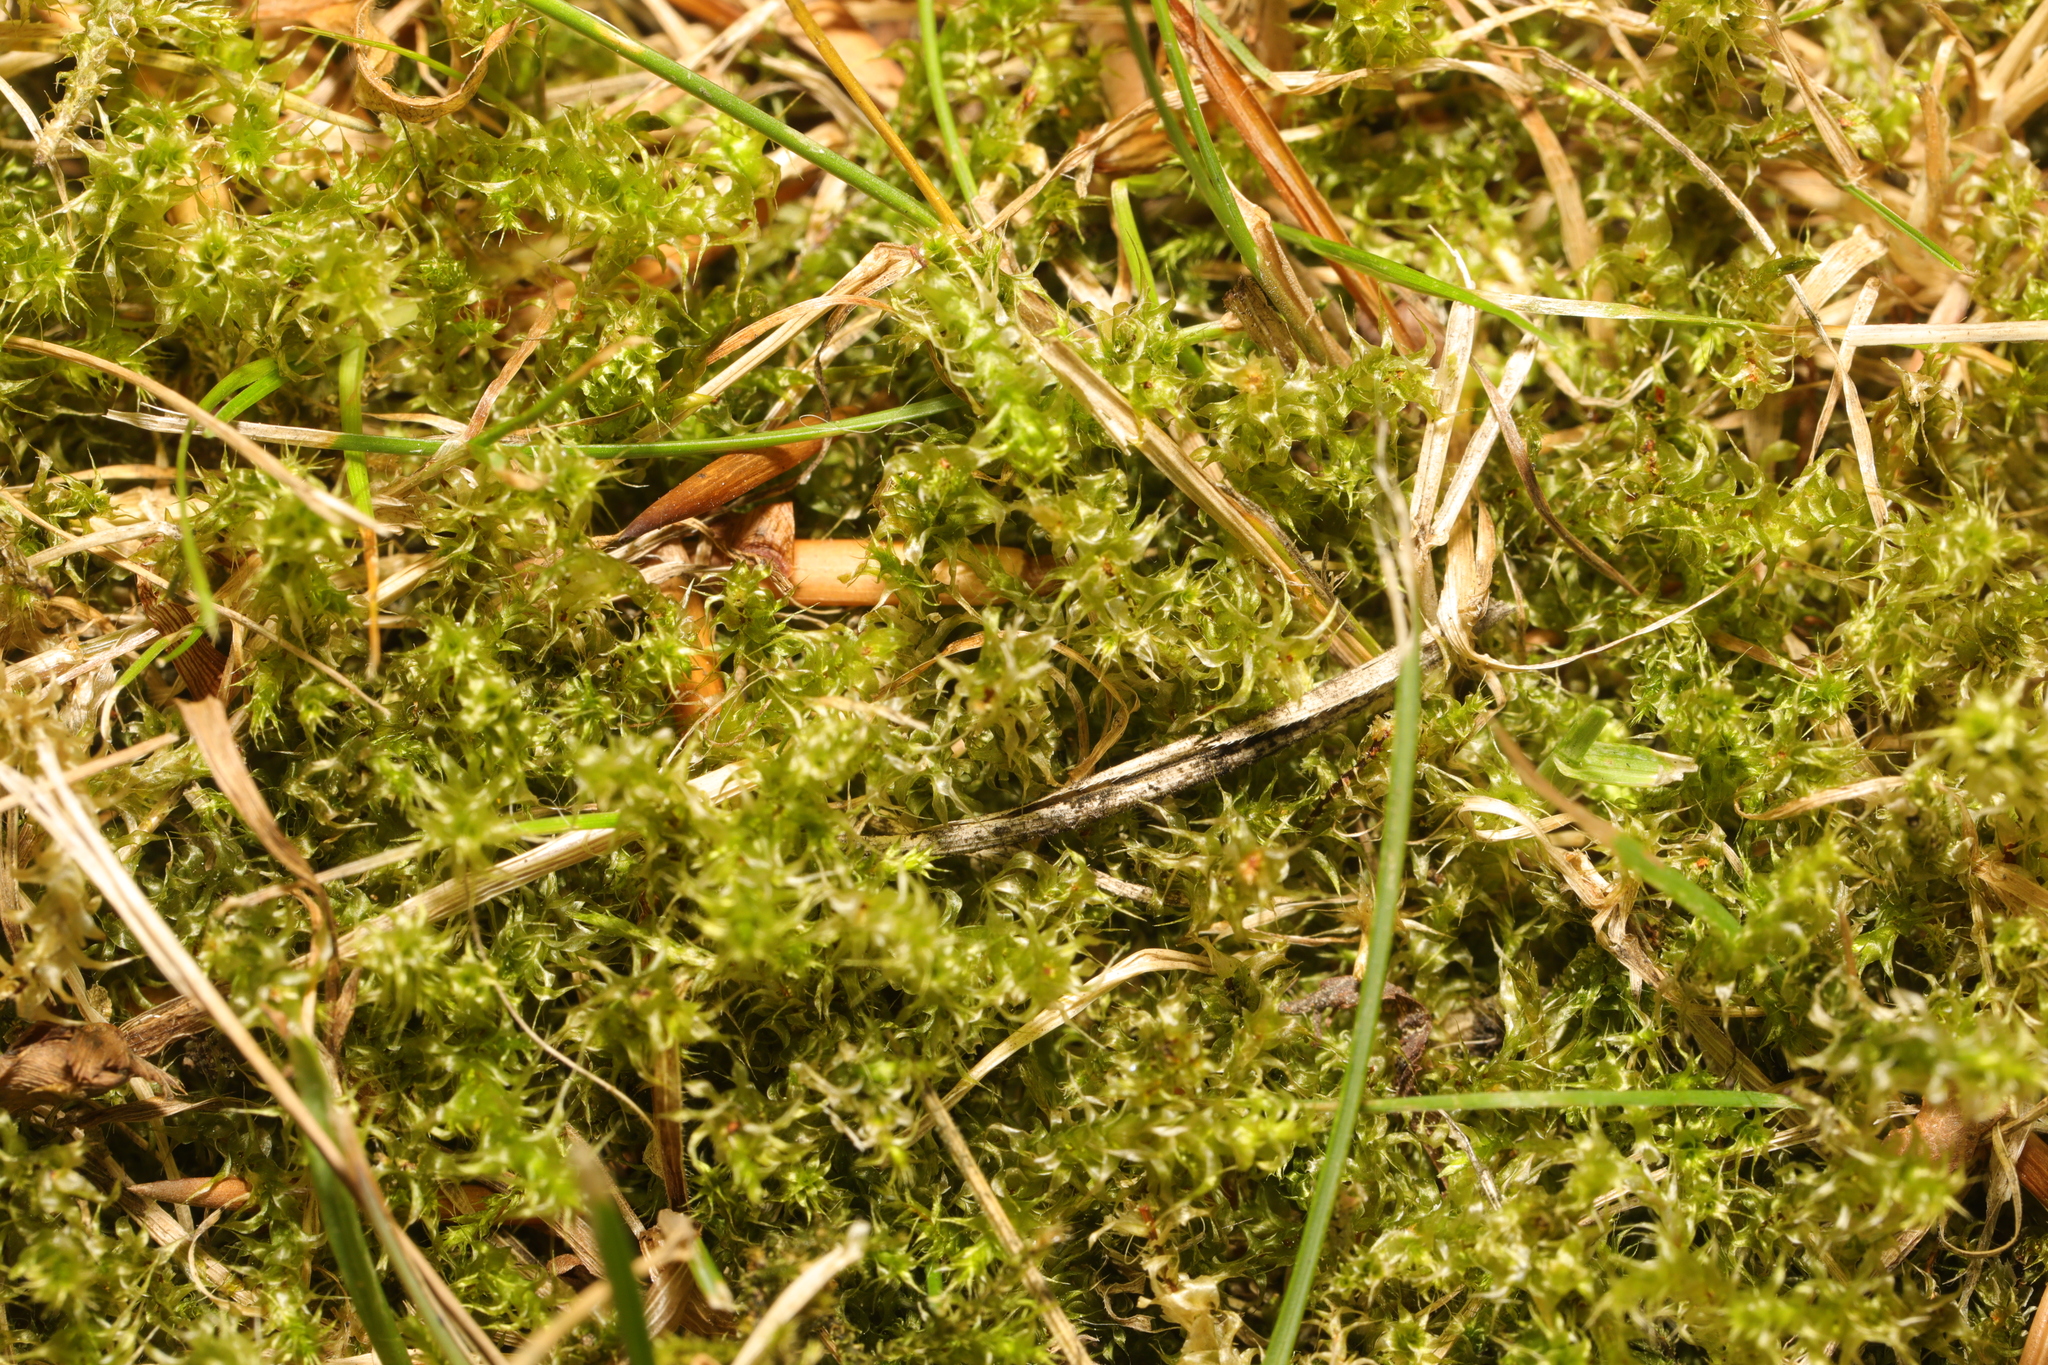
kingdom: Plantae
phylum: Bryophyta
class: Bryopsida
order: Hypnales
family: Hylocomiaceae
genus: Rhytidiadelphus
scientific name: Rhytidiadelphus squarrosus
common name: Springy turf-moss
